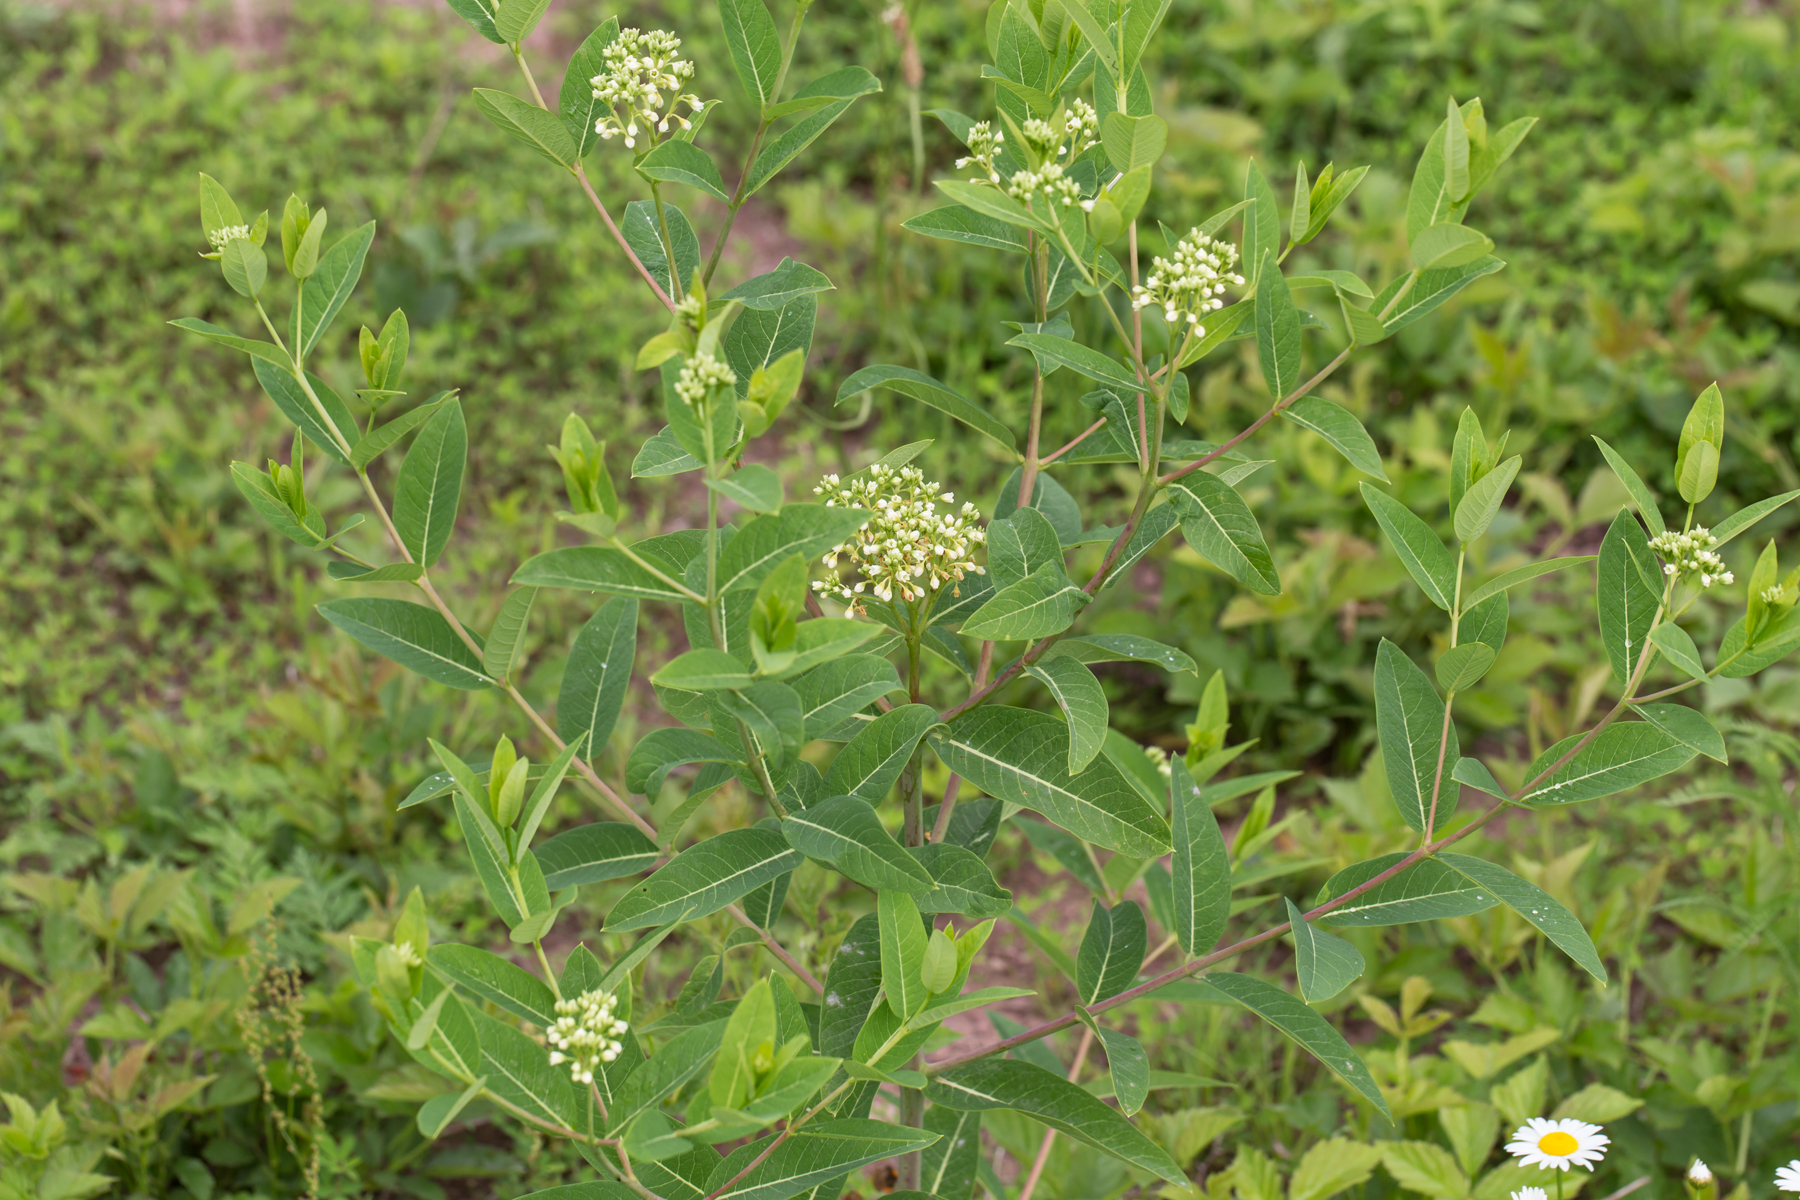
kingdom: Plantae
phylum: Tracheophyta
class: Magnoliopsida
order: Gentianales
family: Apocynaceae
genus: Apocynum
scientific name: Apocynum cannabinum
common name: Hemp dogbane
